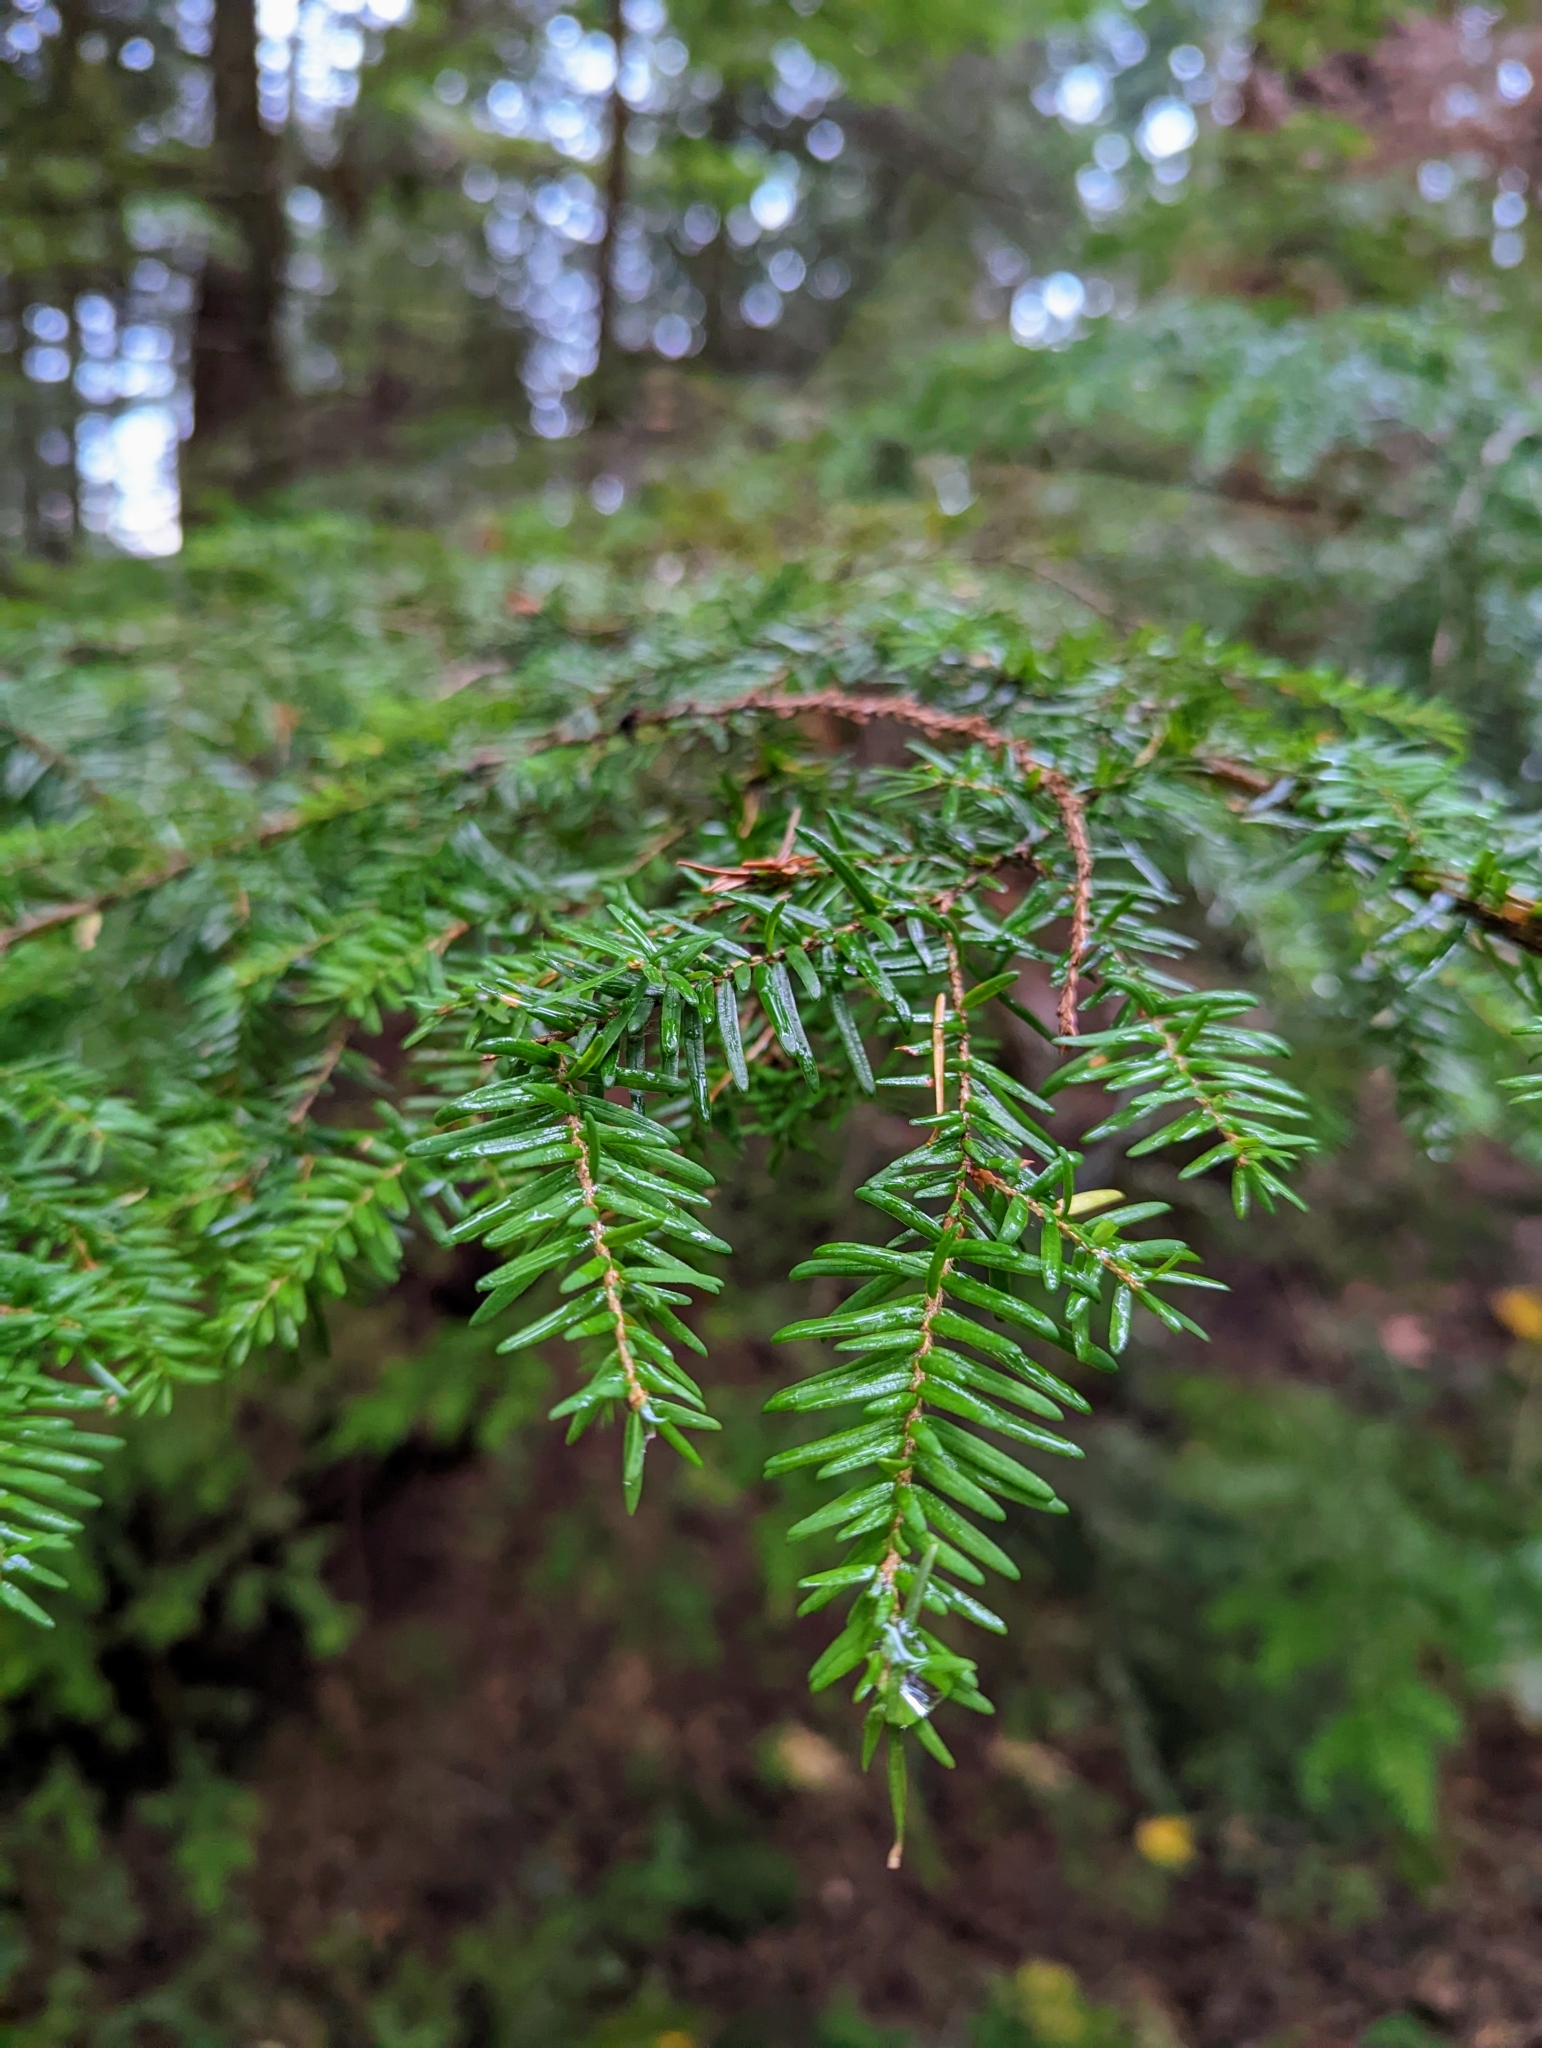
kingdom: Plantae
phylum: Tracheophyta
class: Pinopsida
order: Pinales
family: Pinaceae
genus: Tsuga
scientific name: Tsuga heterophylla
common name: Western hemlock
